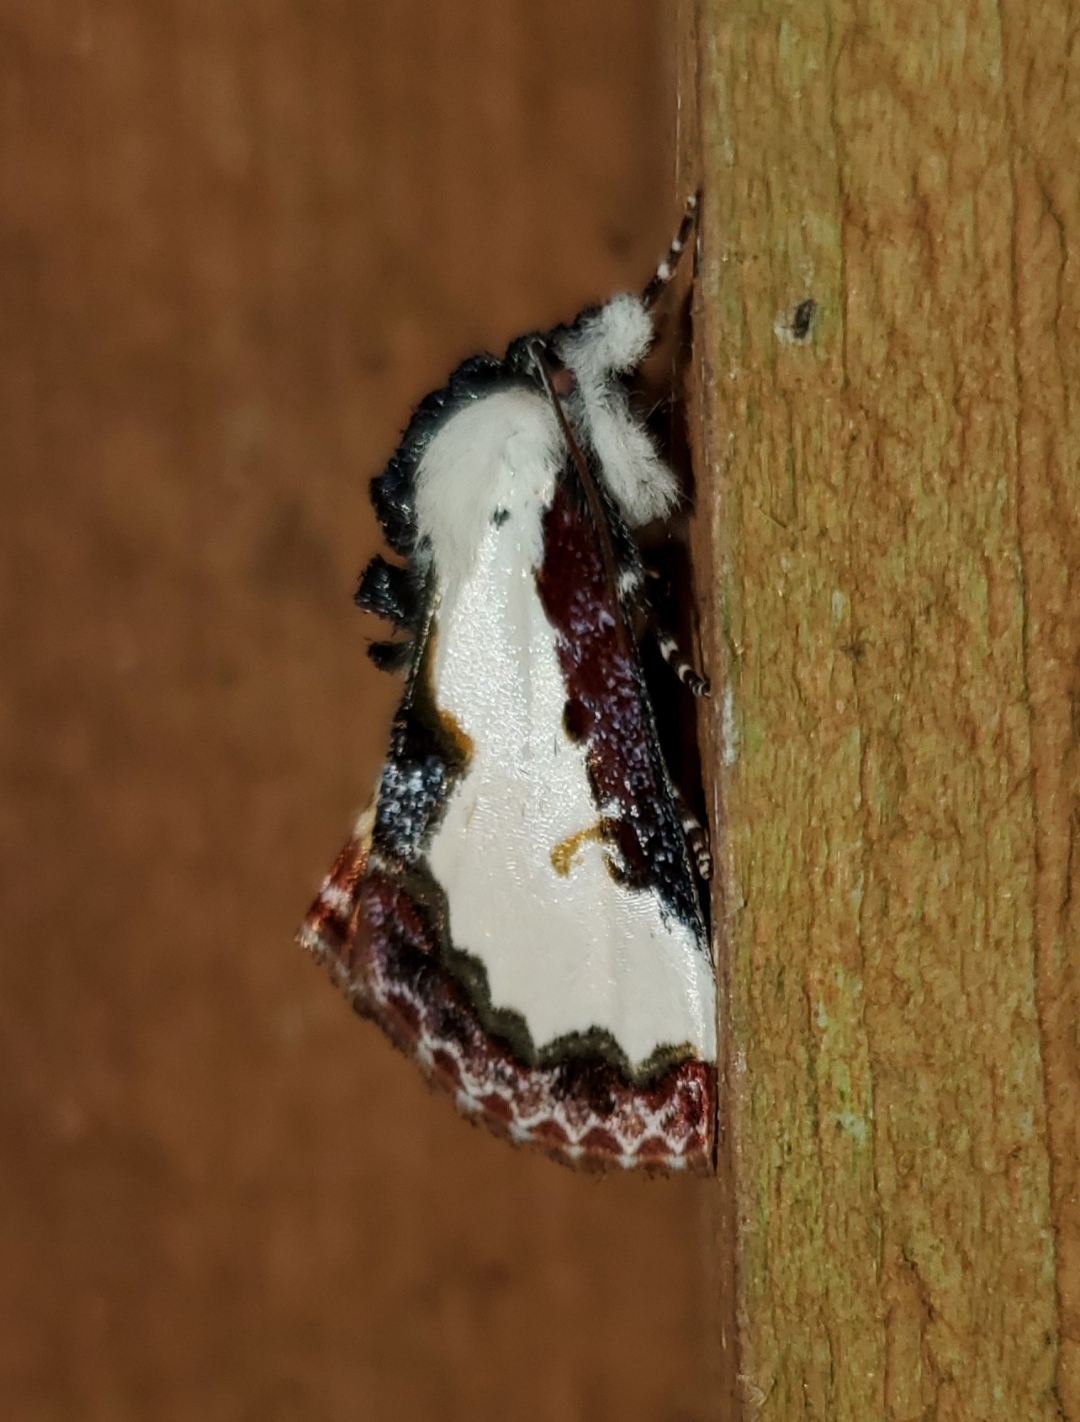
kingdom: Animalia
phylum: Arthropoda
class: Insecta
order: Lepidoptera
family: Noctuidae
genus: Eudryas
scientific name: Eudryas unio
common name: Pearly wood-nymph
